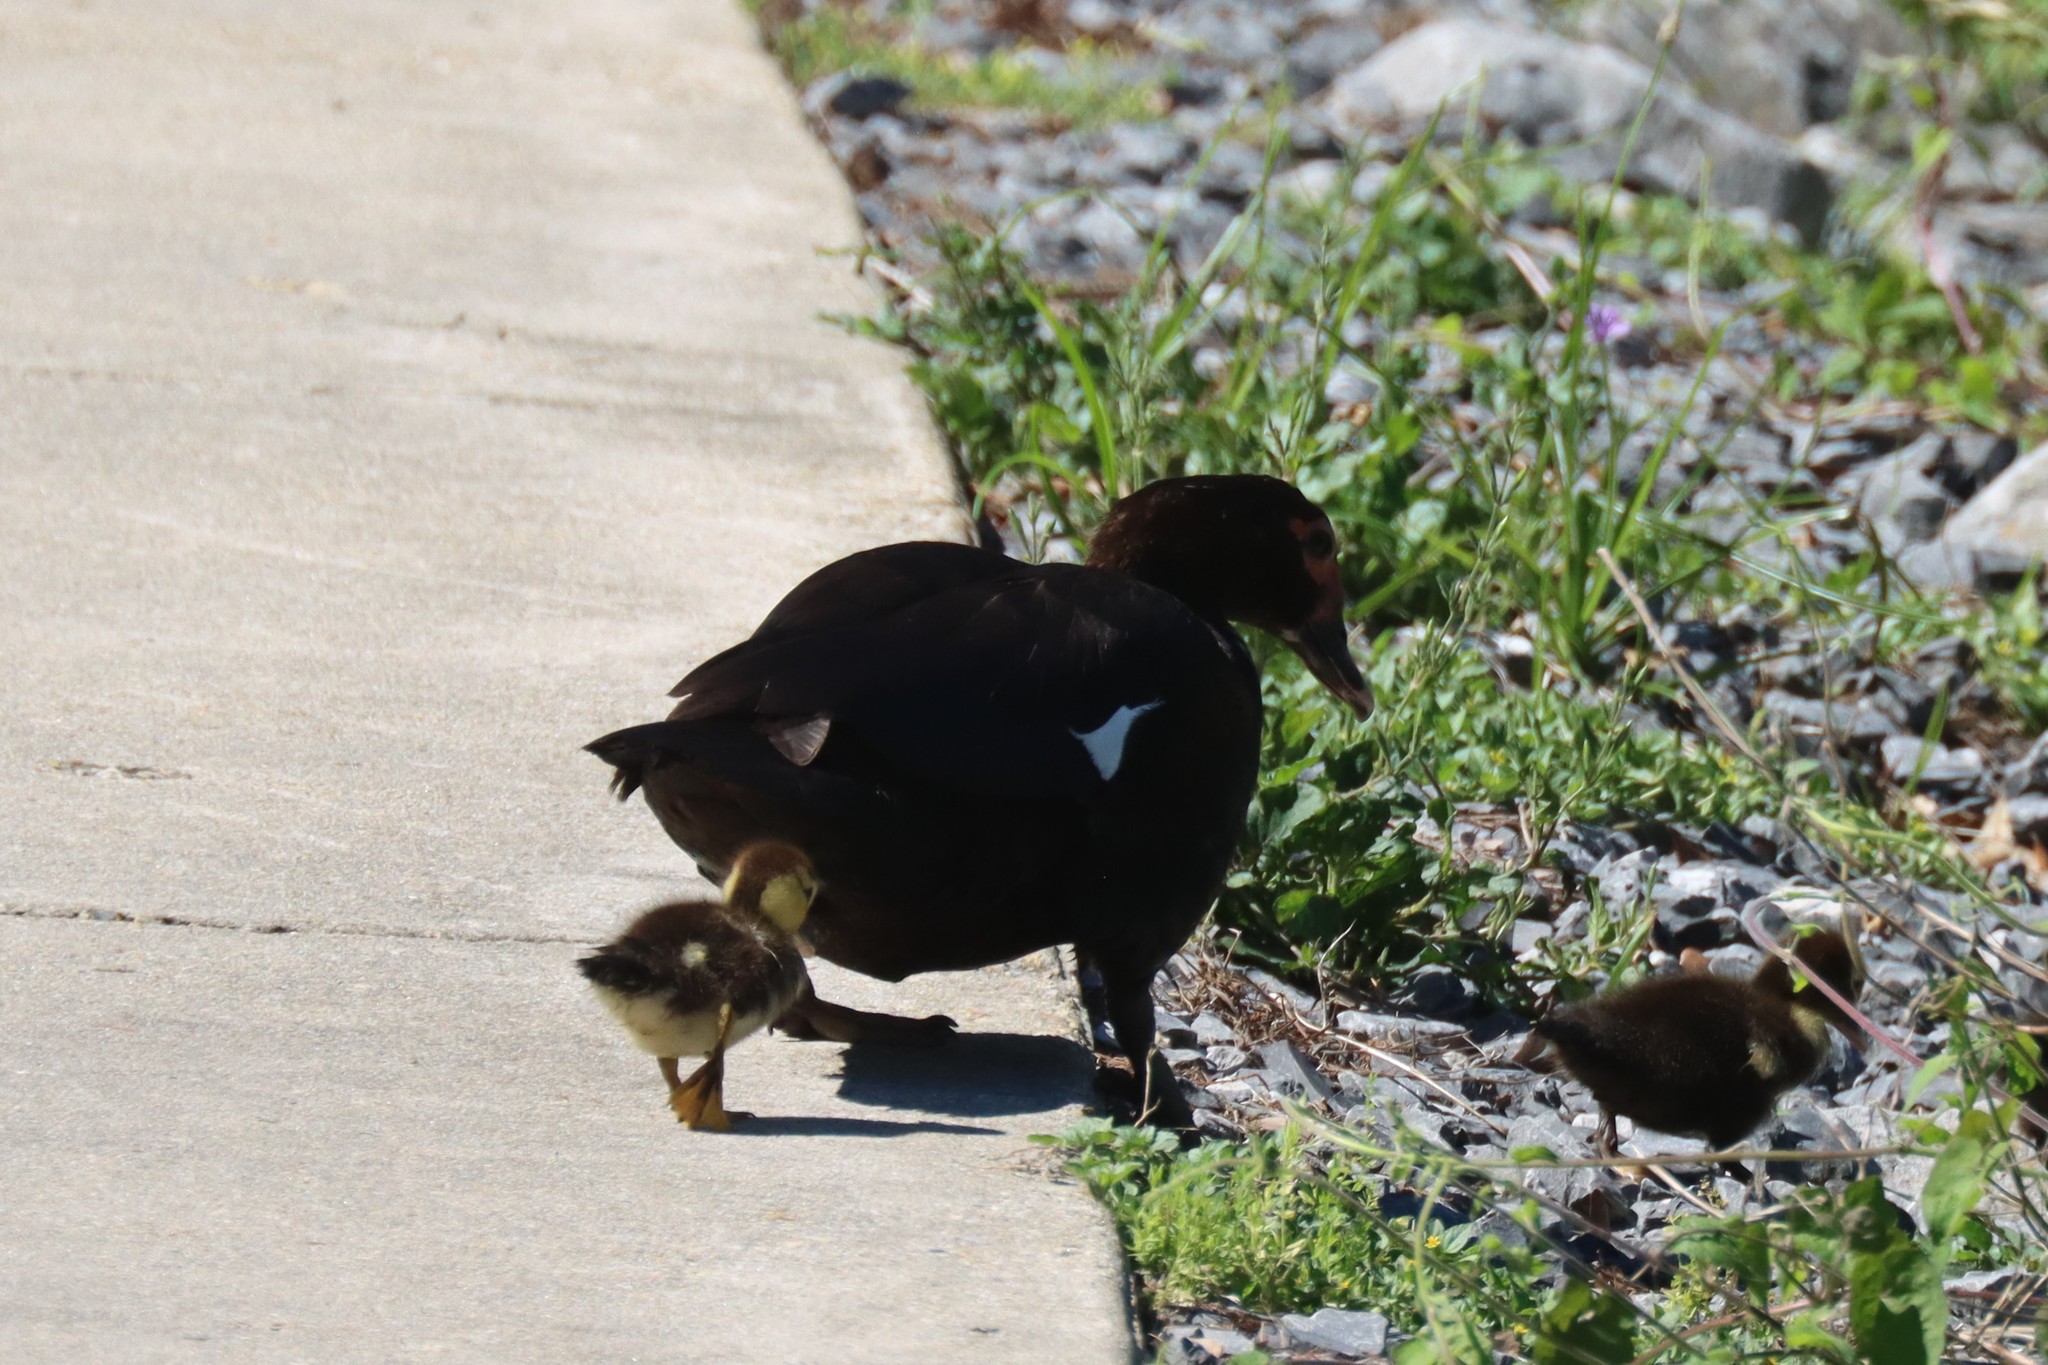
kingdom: Animalia
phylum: Chordata
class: Aves
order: Anseriformes
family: Anatidae
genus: Cairina
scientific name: Cairina moschata
